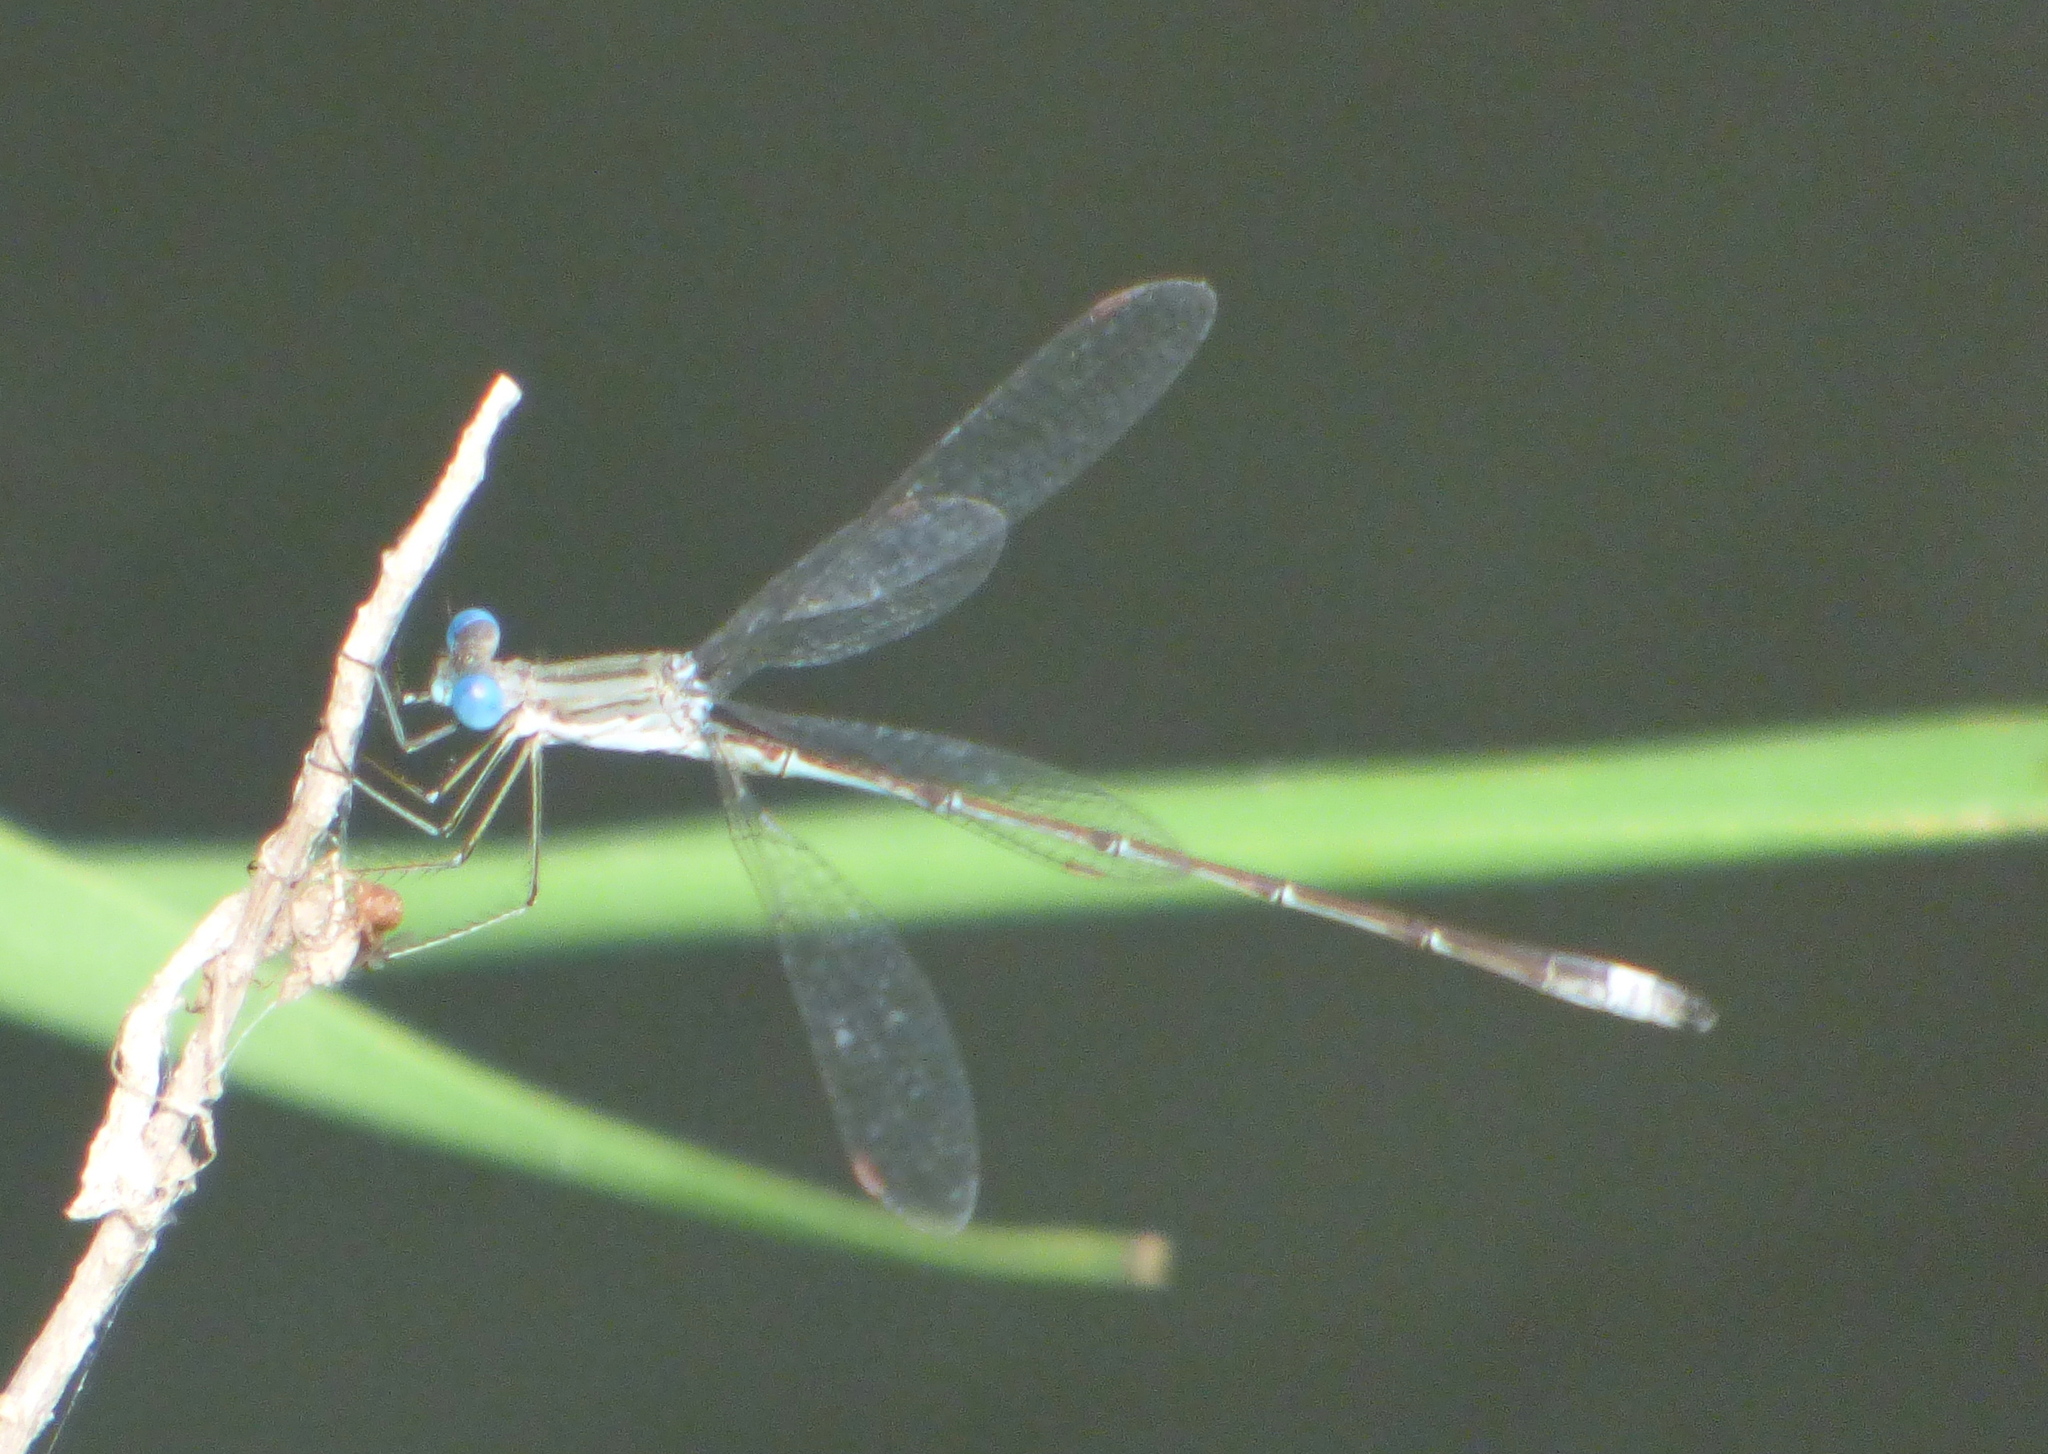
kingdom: Animalia
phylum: Arthropoda
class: Insecta
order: Odonata
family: Lestidae
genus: Lestes
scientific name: Lestes spatula
